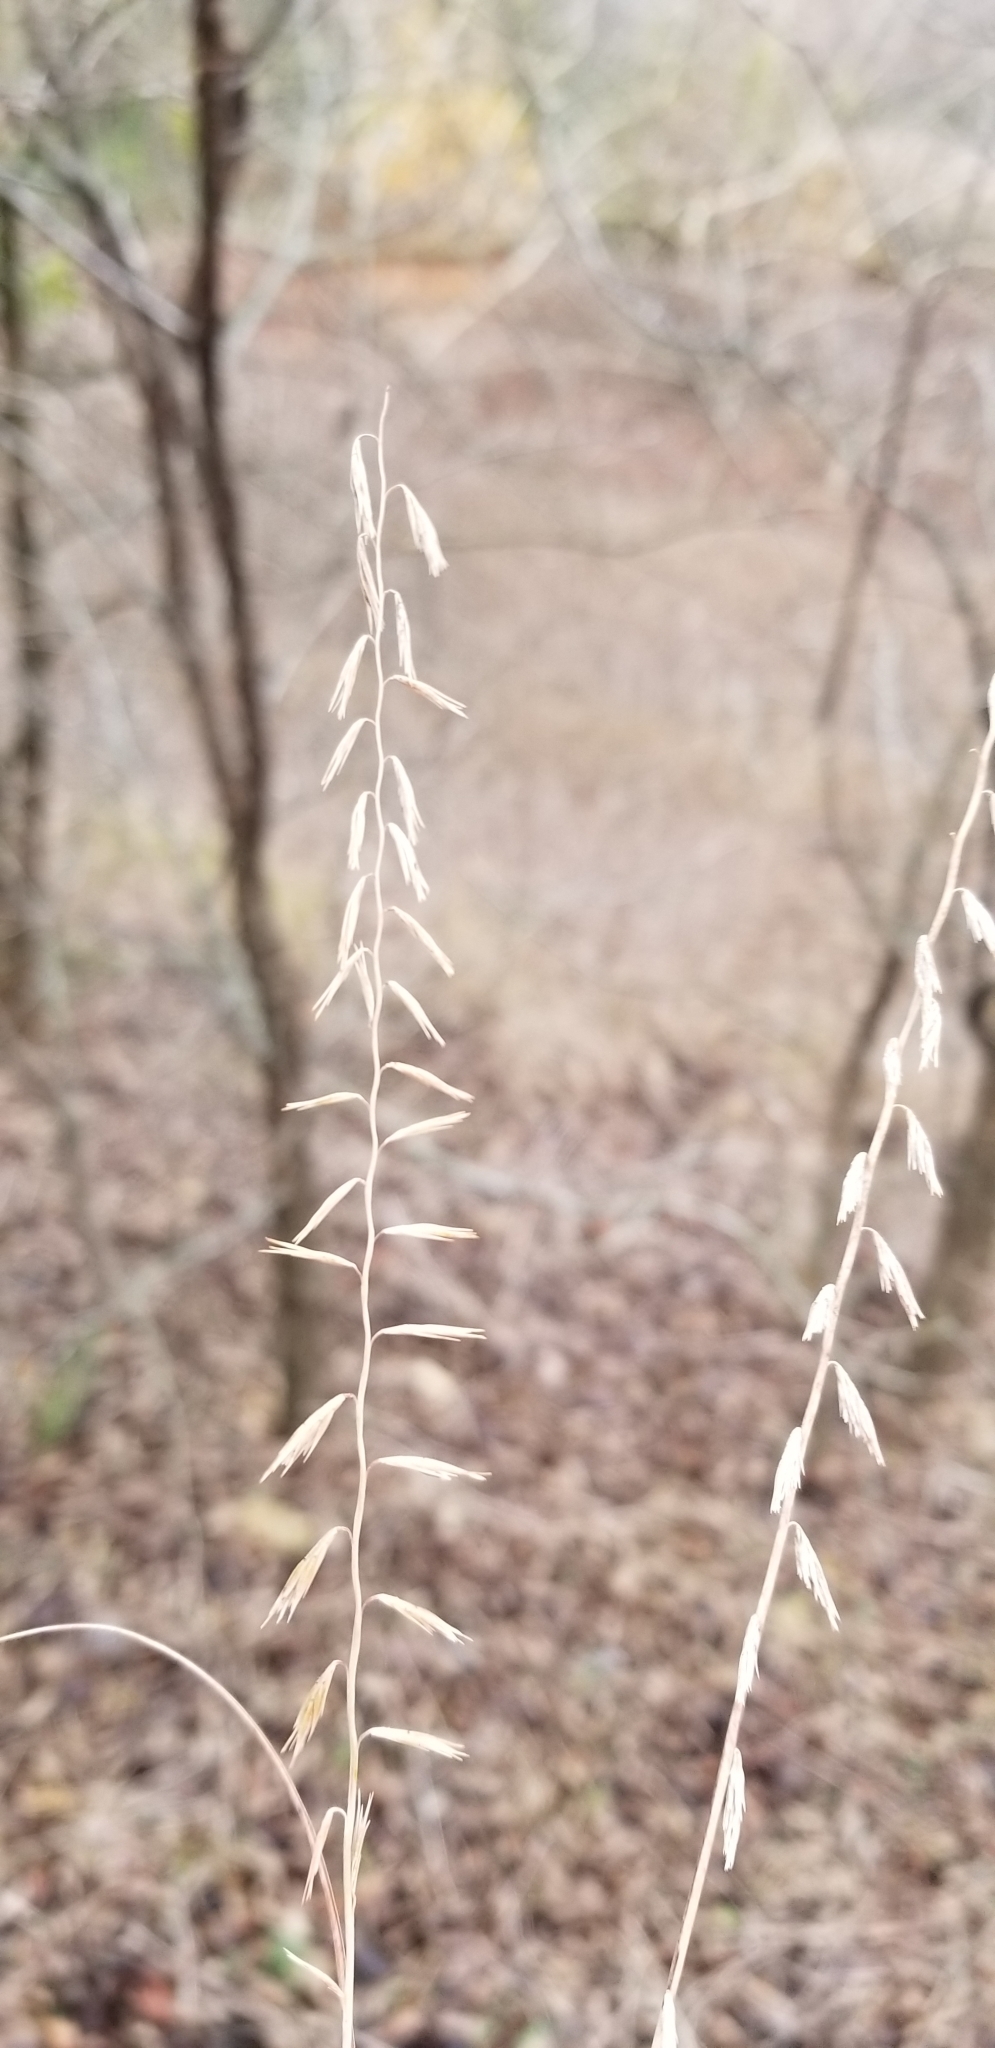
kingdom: Plantae
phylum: Tracheophyta
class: Liliopsida
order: Poales
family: Poaceae
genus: Bouteloua
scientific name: Bouteloua curtipendula
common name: Side-oats grama
